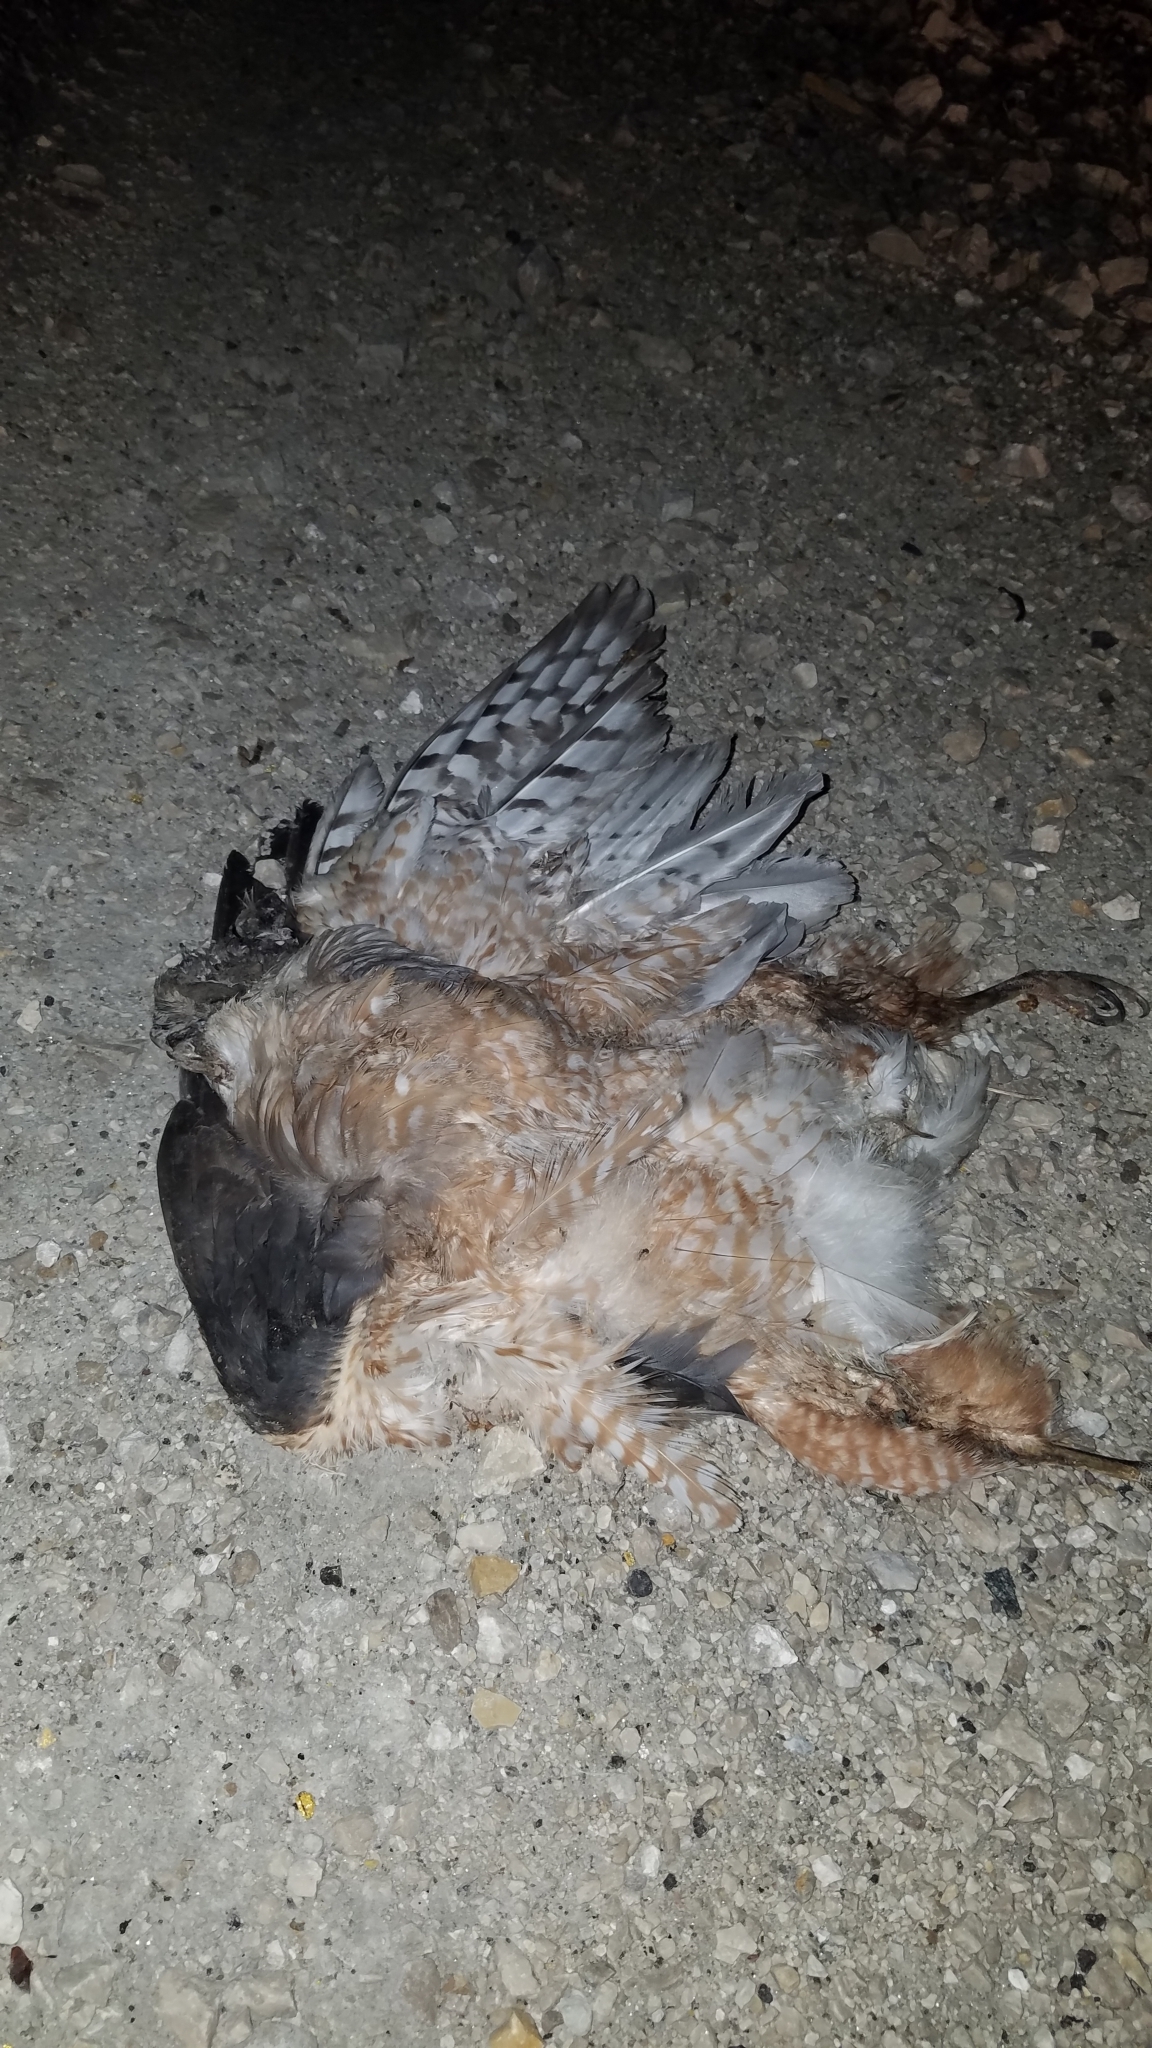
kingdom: Animalia
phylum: Chordata
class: Aves
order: Accipitriformes
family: Accipitridae
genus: Accipiter
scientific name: Accipiter cooperii
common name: Cooper's hawk
